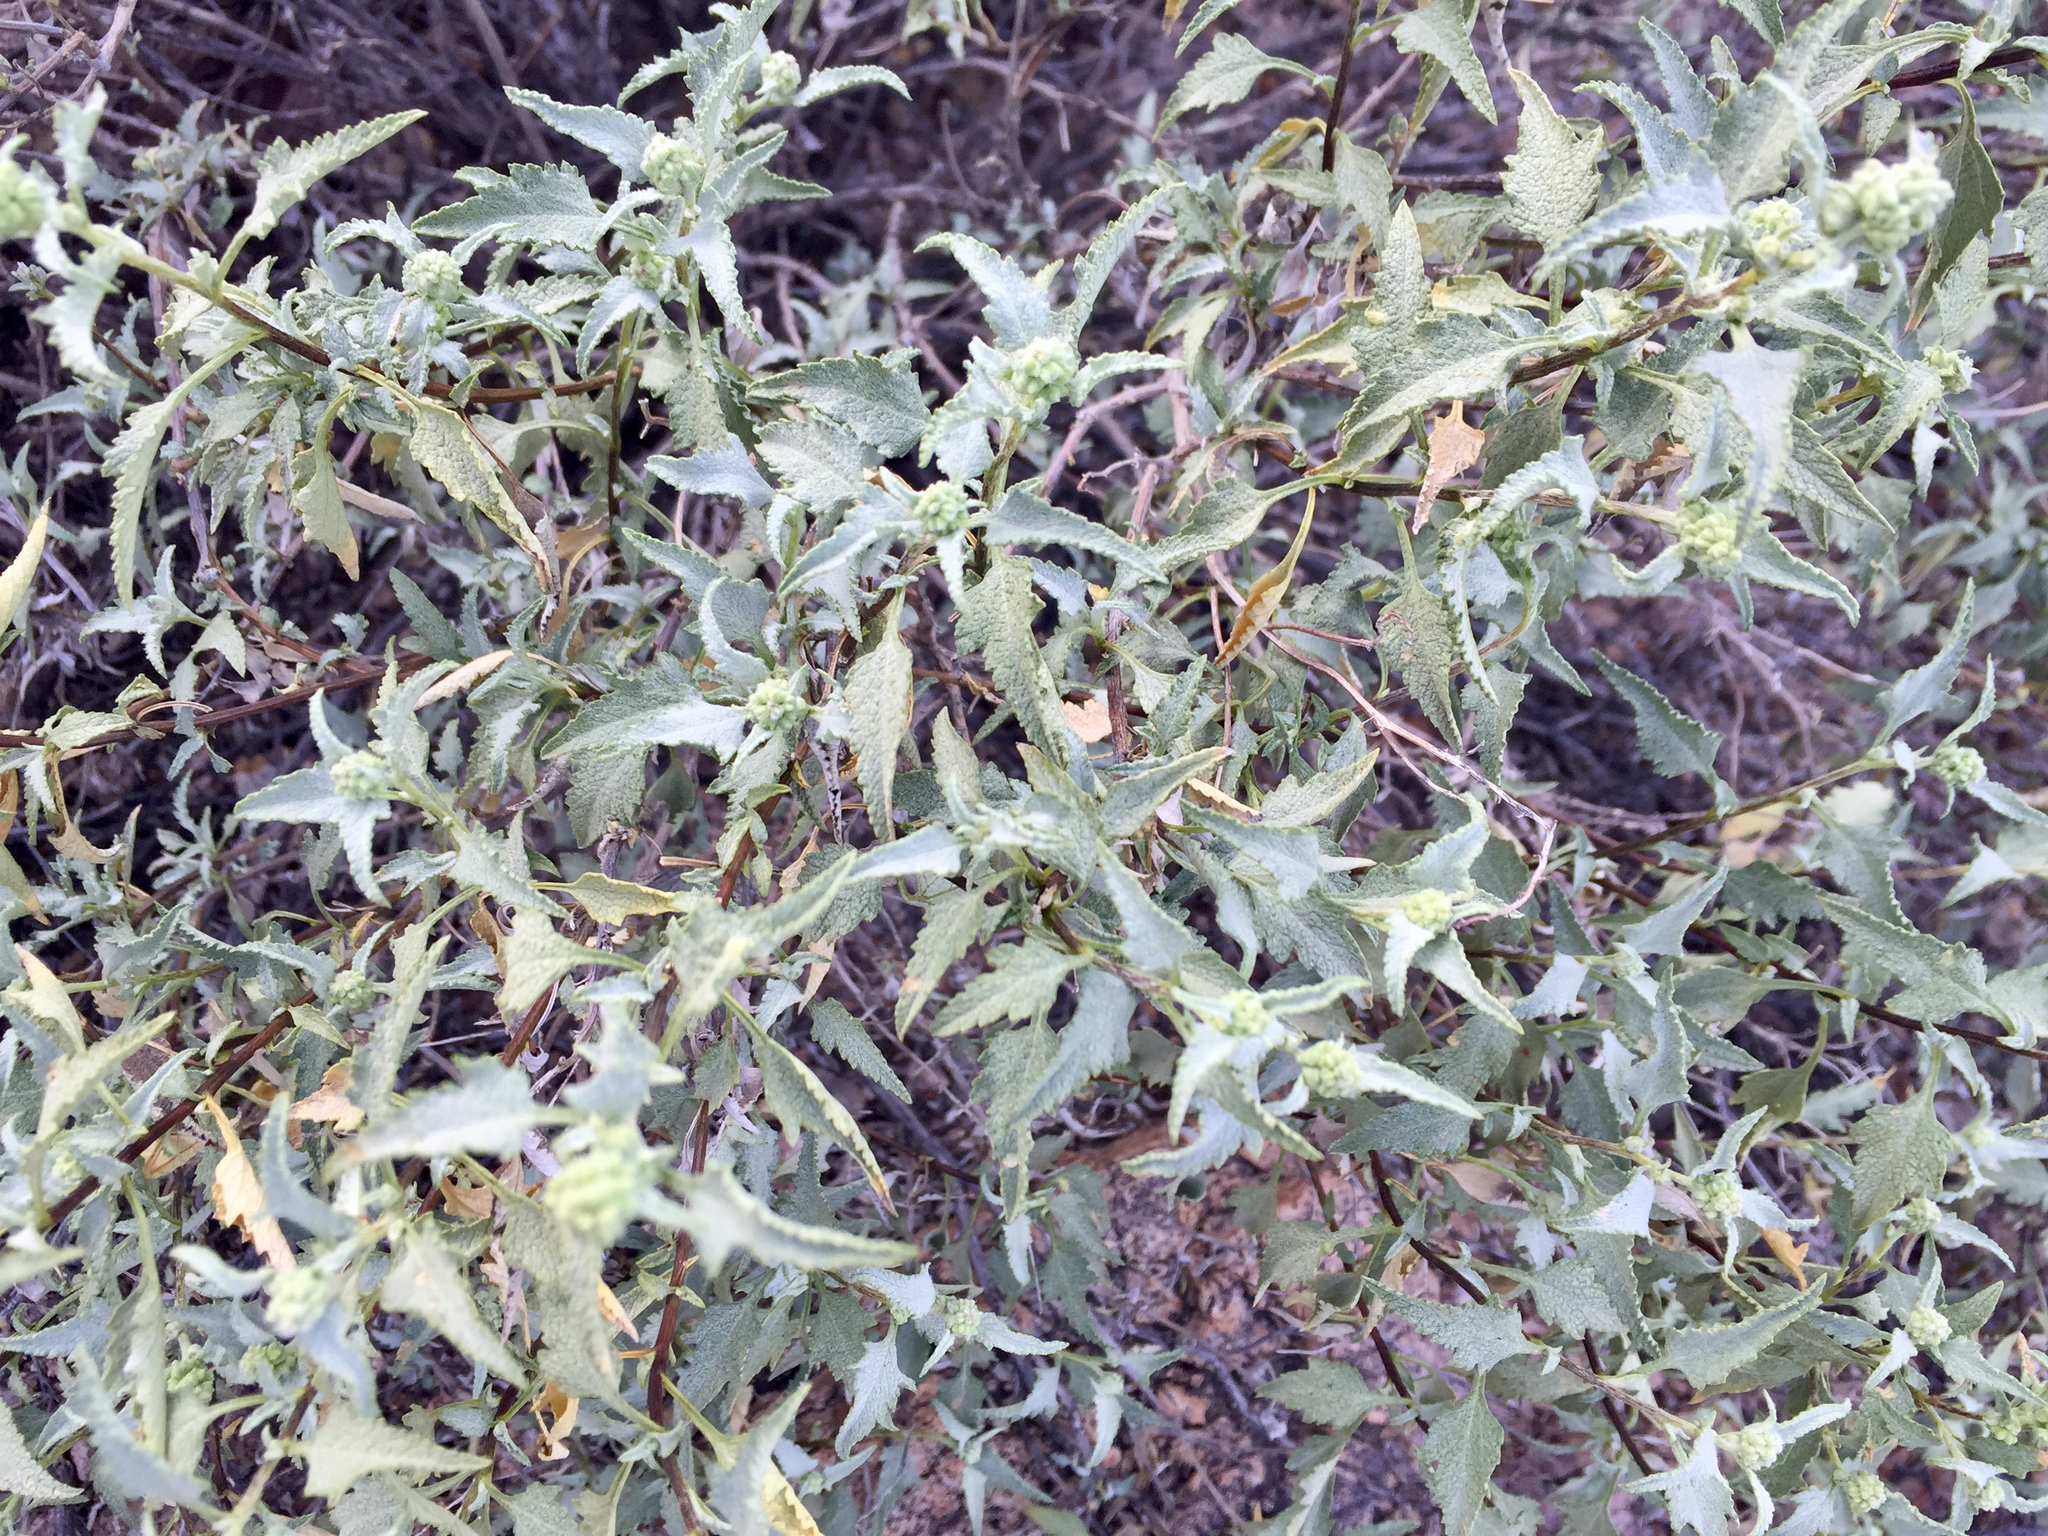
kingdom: Plantae
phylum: Tracheophyta
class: Magnoliopsida
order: Asterales
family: Asteraceae
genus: Ambrosia
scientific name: Ambrosia deltoidea
